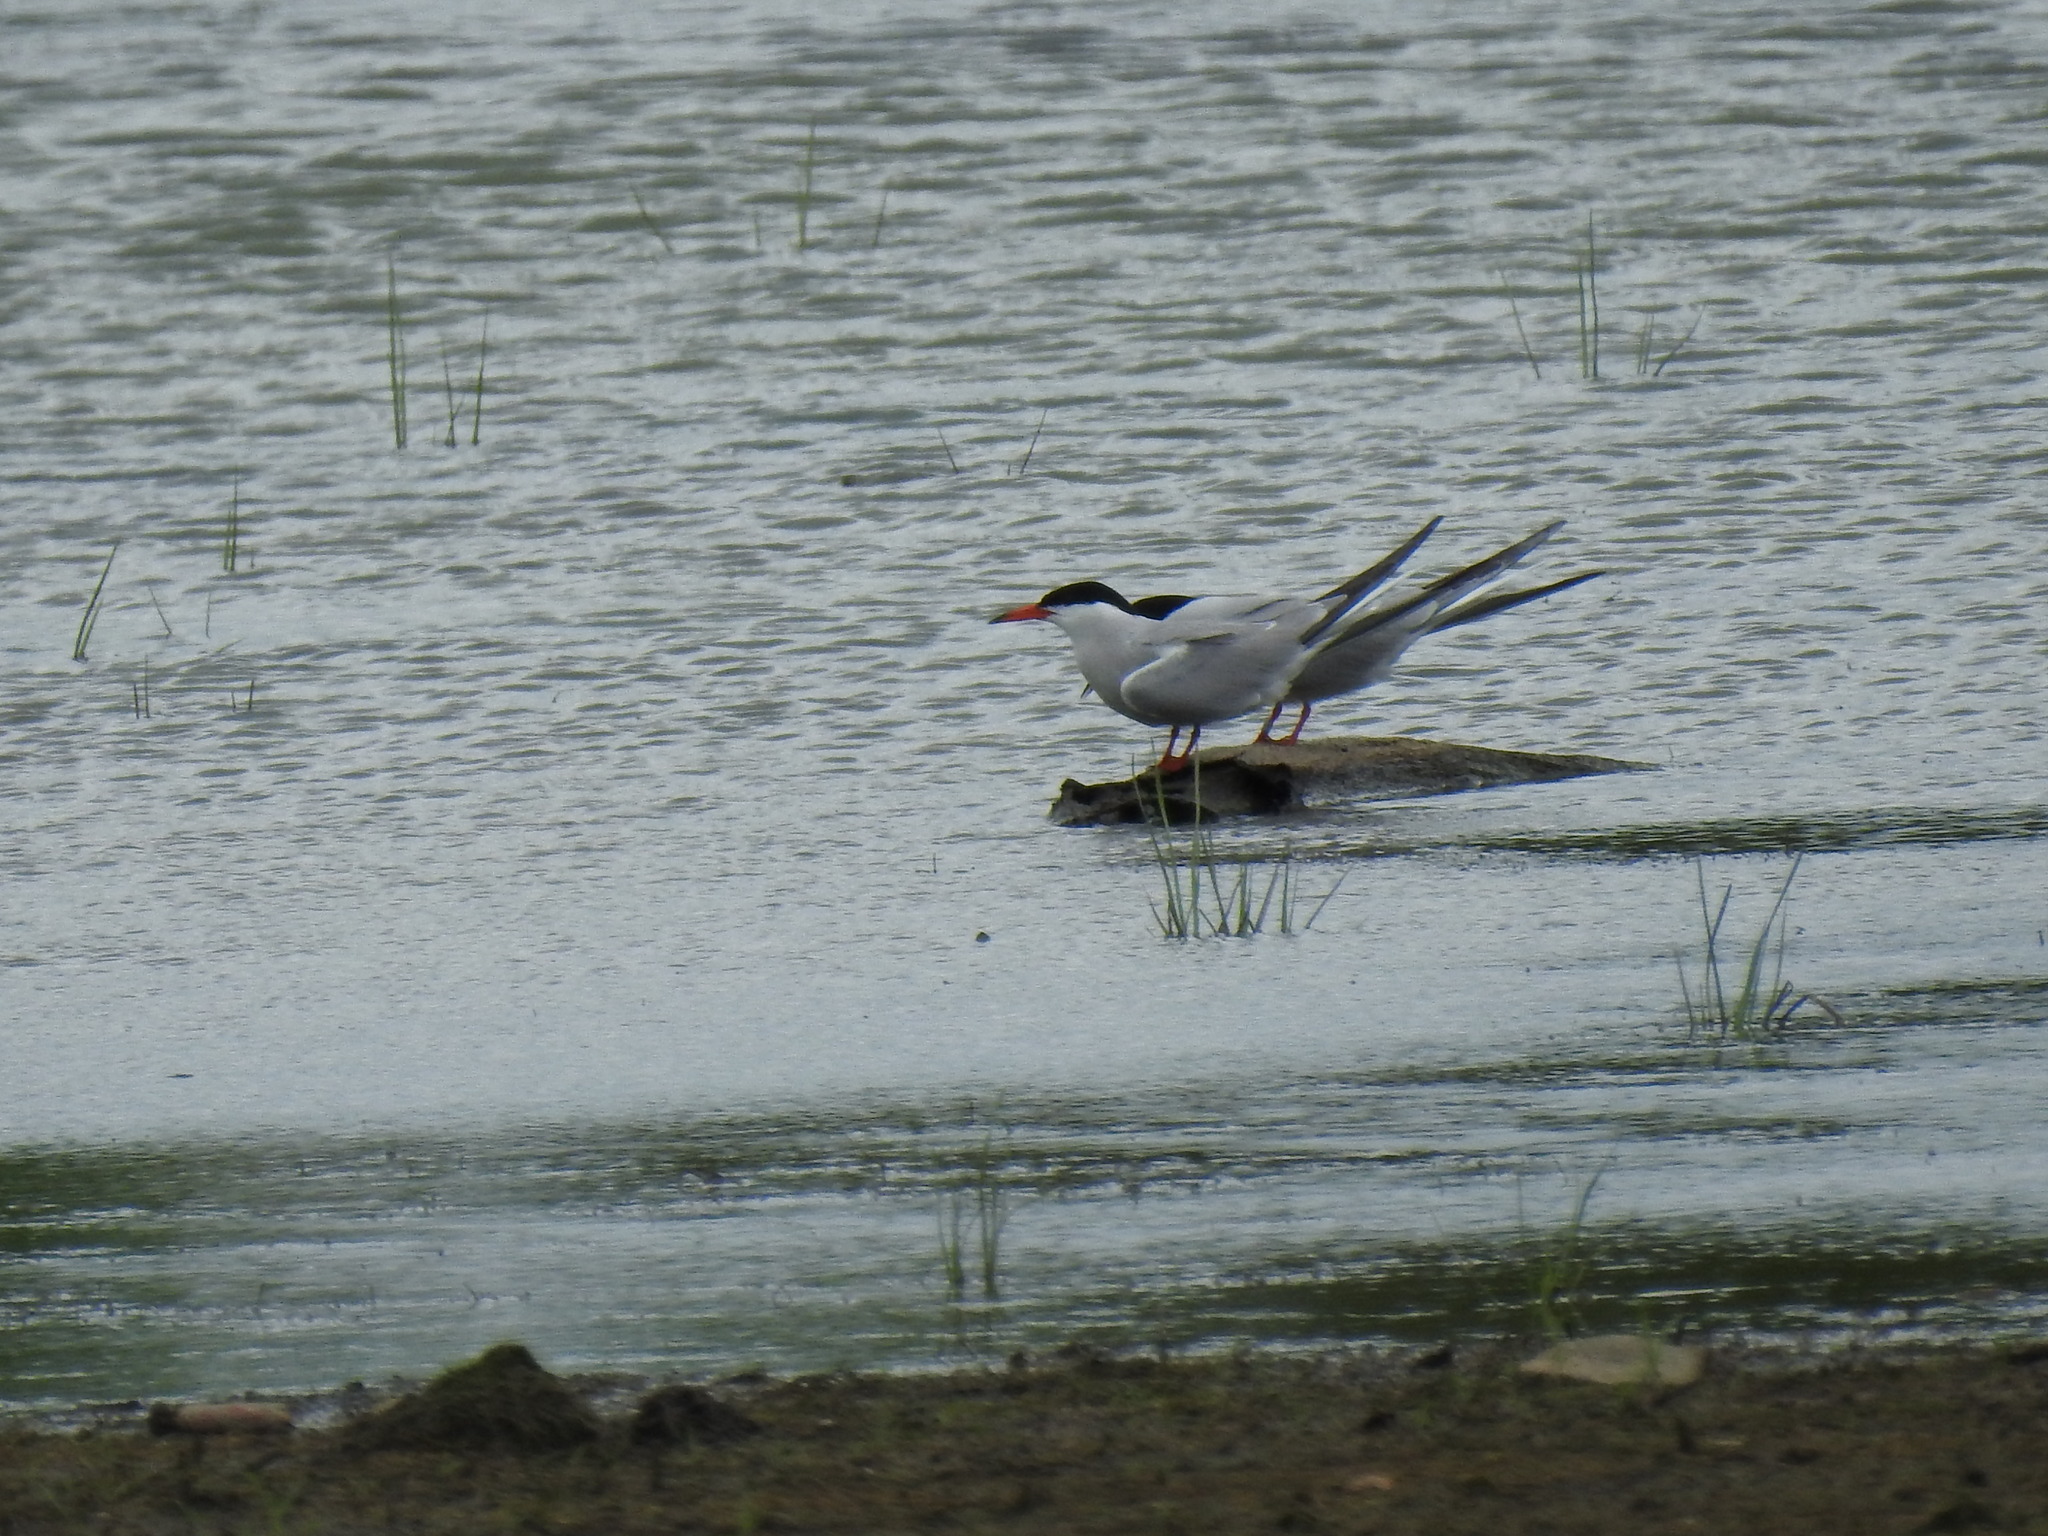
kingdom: Animalia
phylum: Chordata
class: Aves
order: Charadriiformes
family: Laridae
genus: Sterna
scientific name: Sterna hirundo
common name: Common tern
